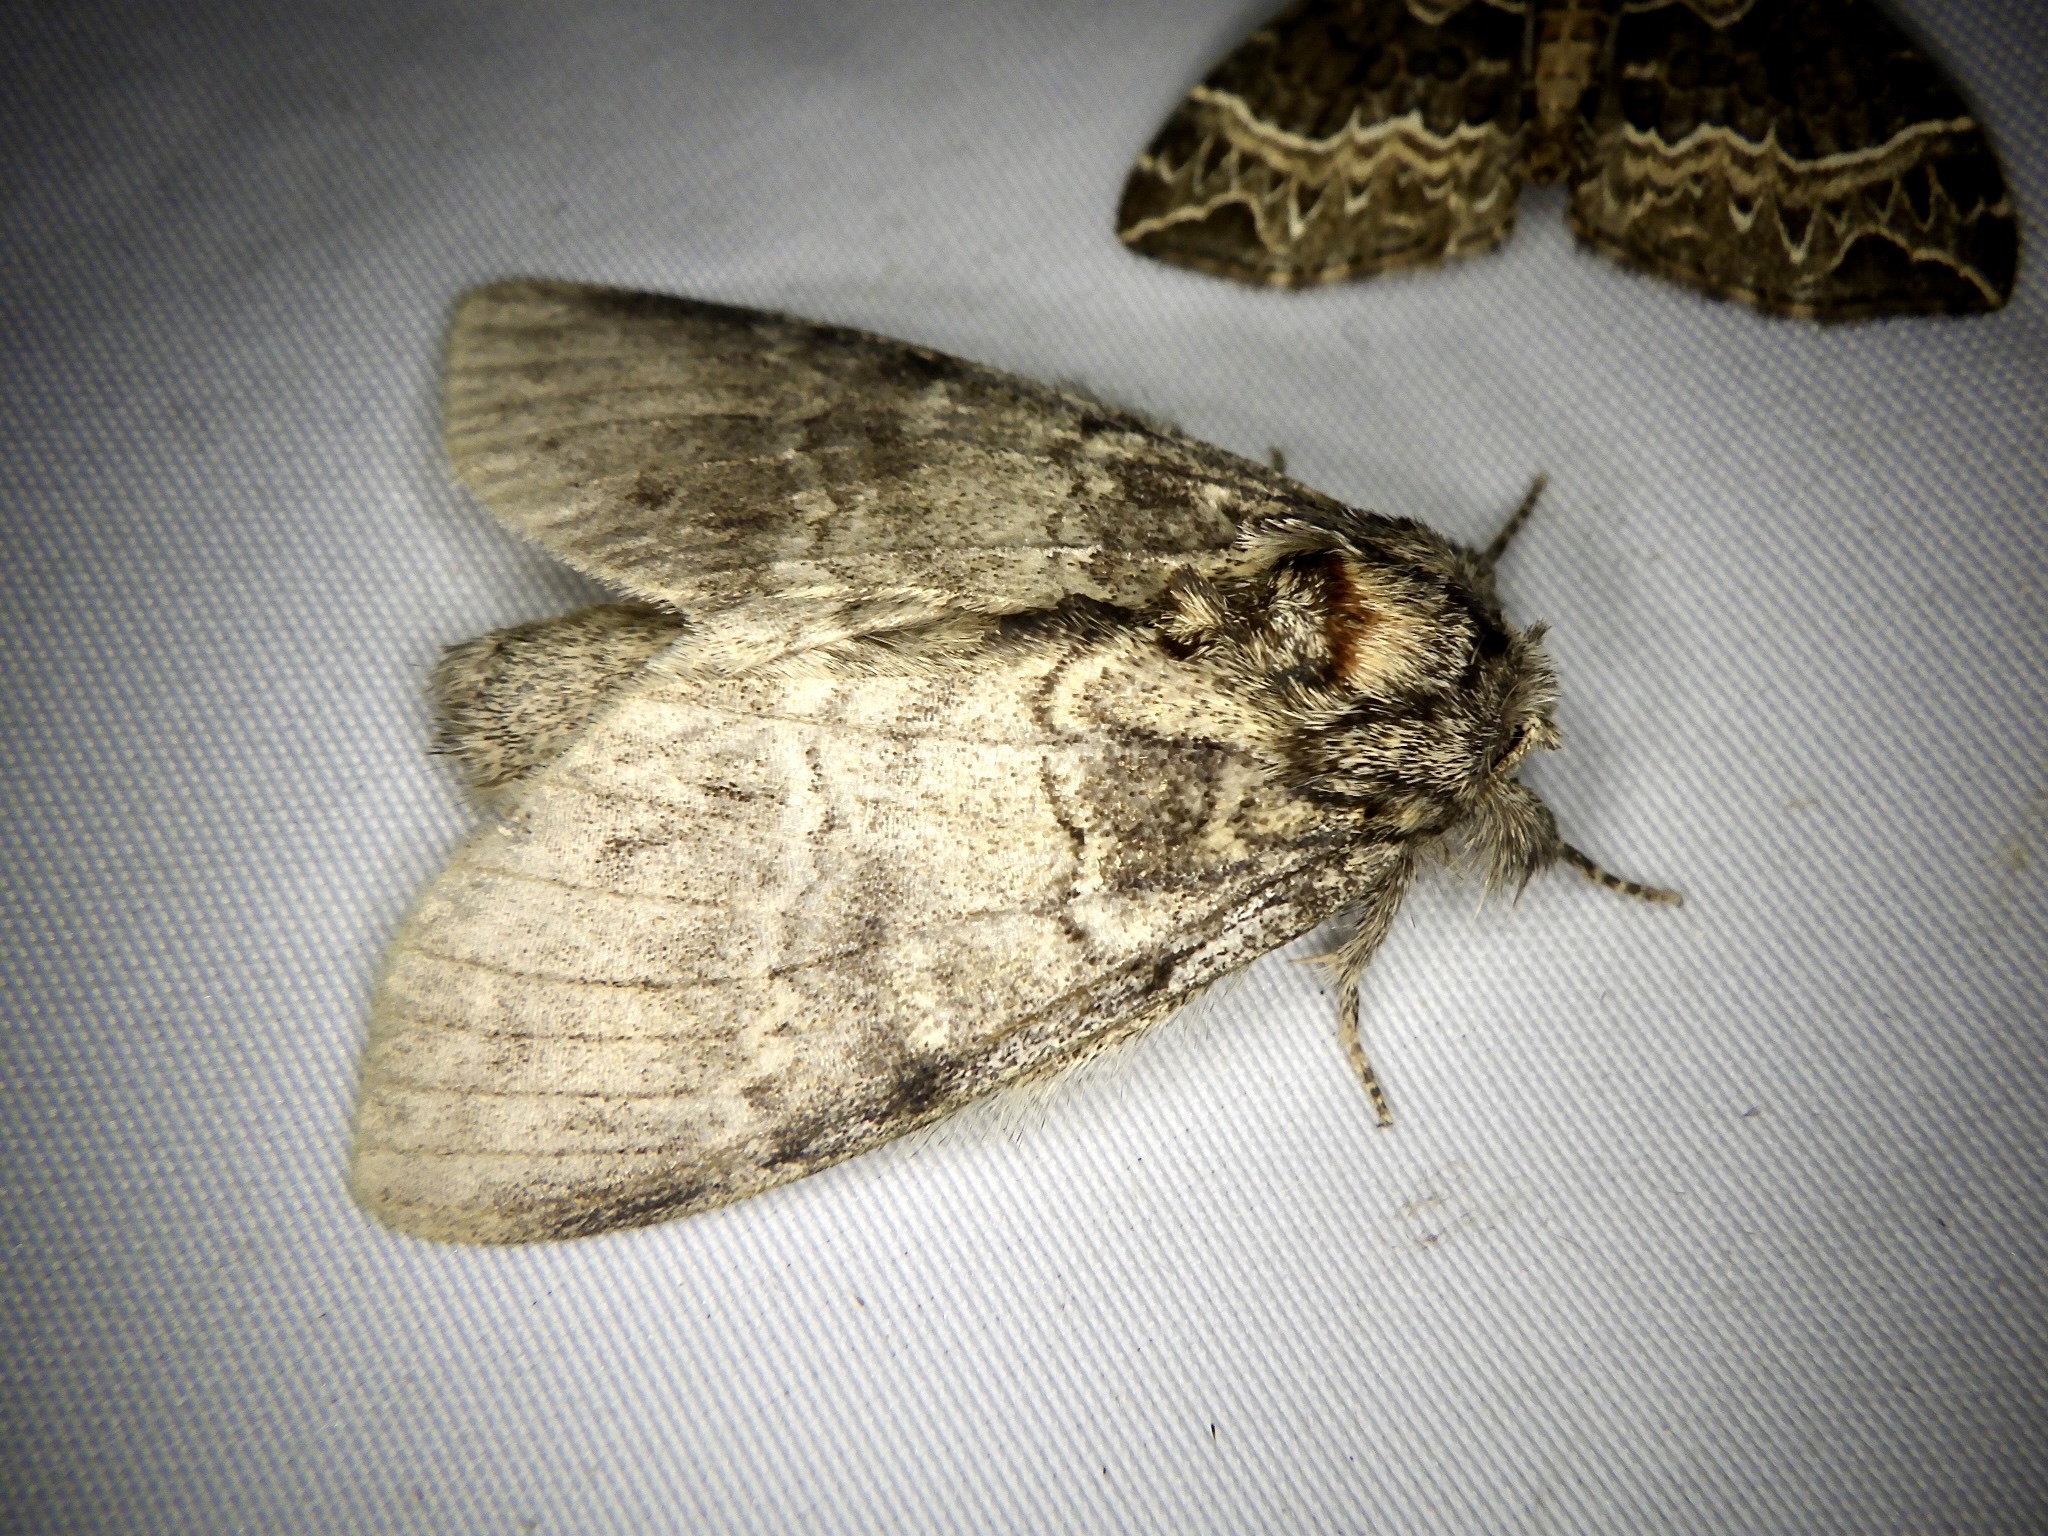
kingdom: Animalia
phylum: Arthropoda
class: Insecta
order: Lepidoptera
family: Notodontidae
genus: Peridea
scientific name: Peridea oberthueri
